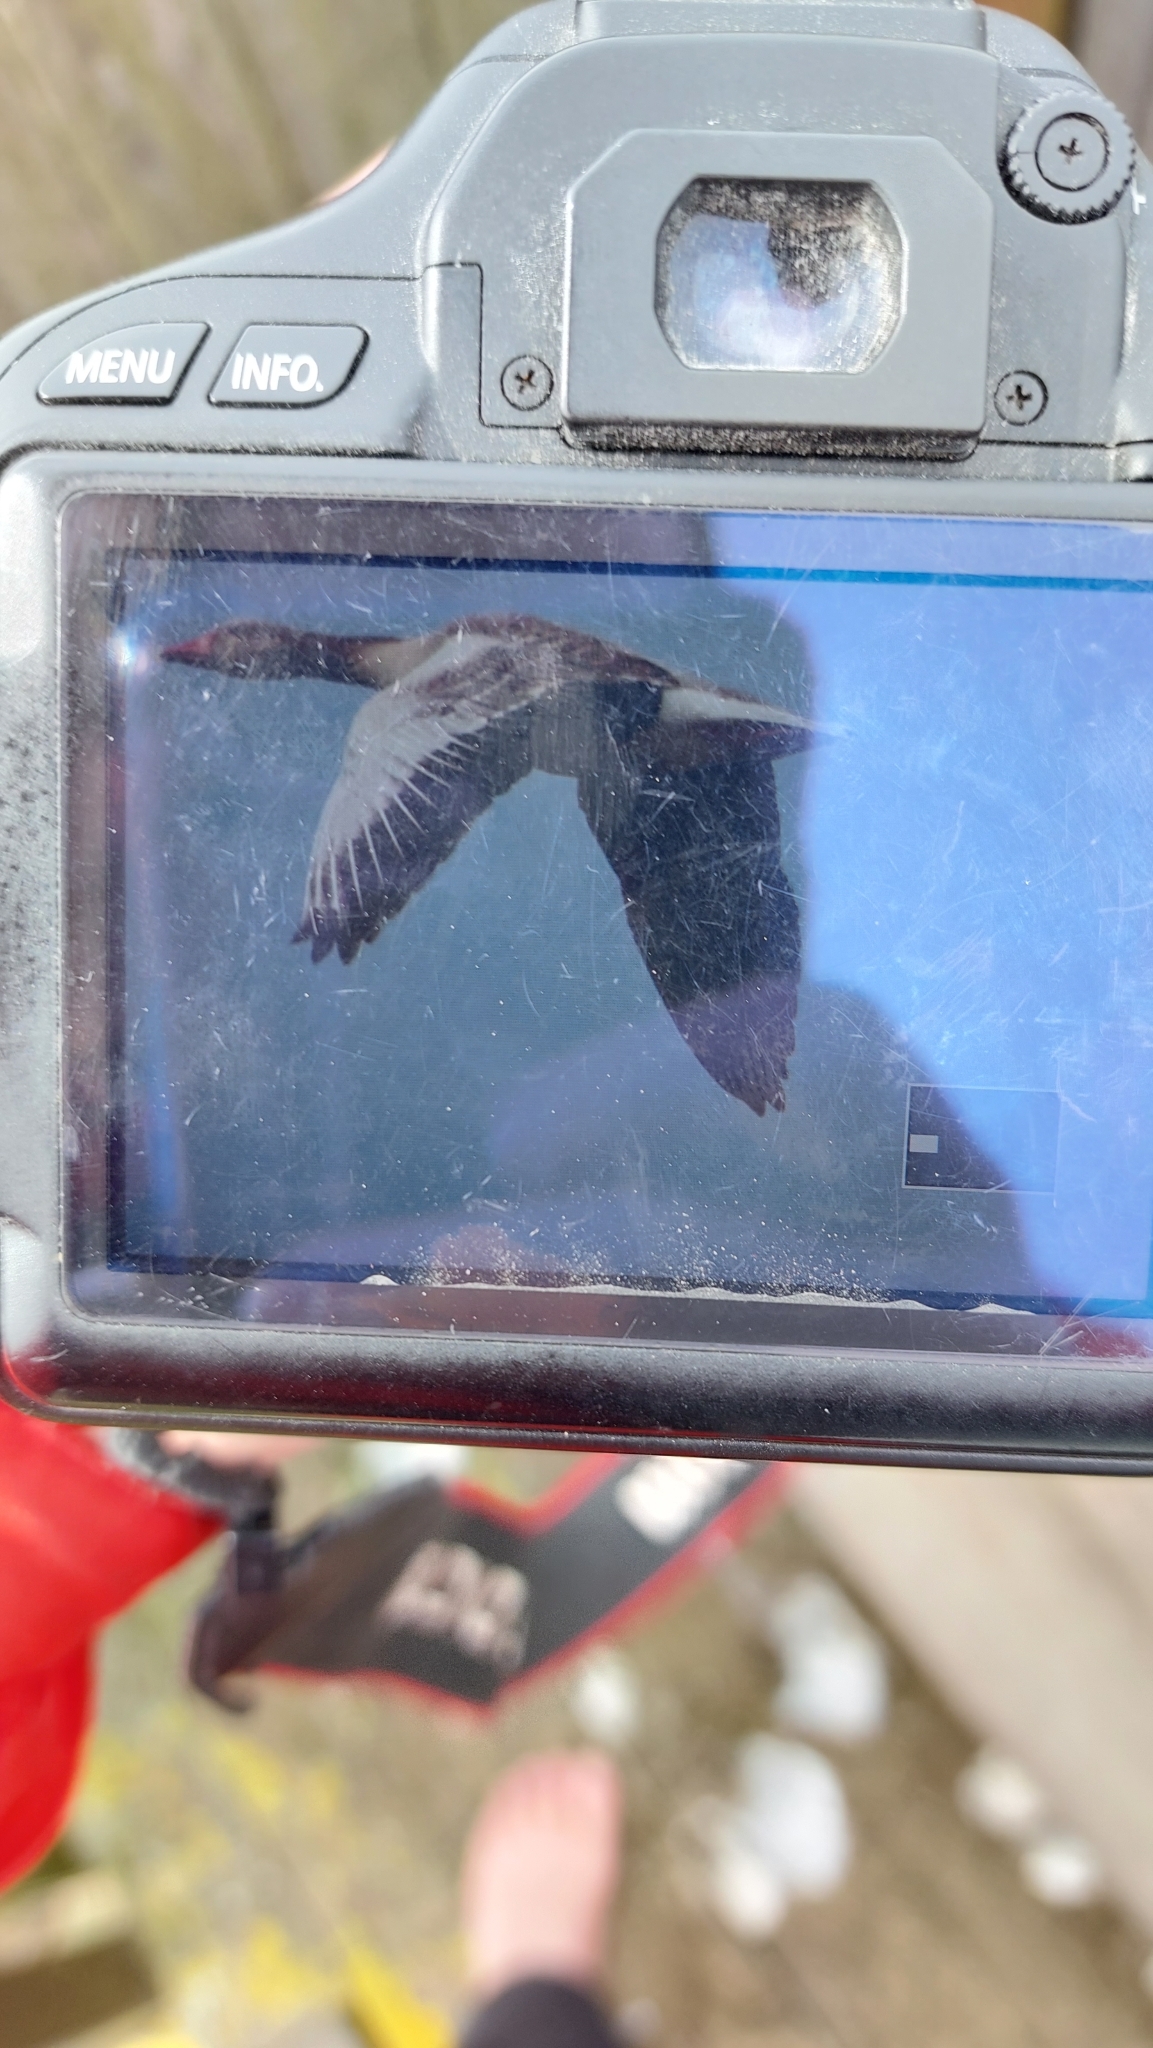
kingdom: Animalia
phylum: Chordata
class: Aves
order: Anseriformes
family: Anatidae
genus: Anser
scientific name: Anser anser
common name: Greylag goose
